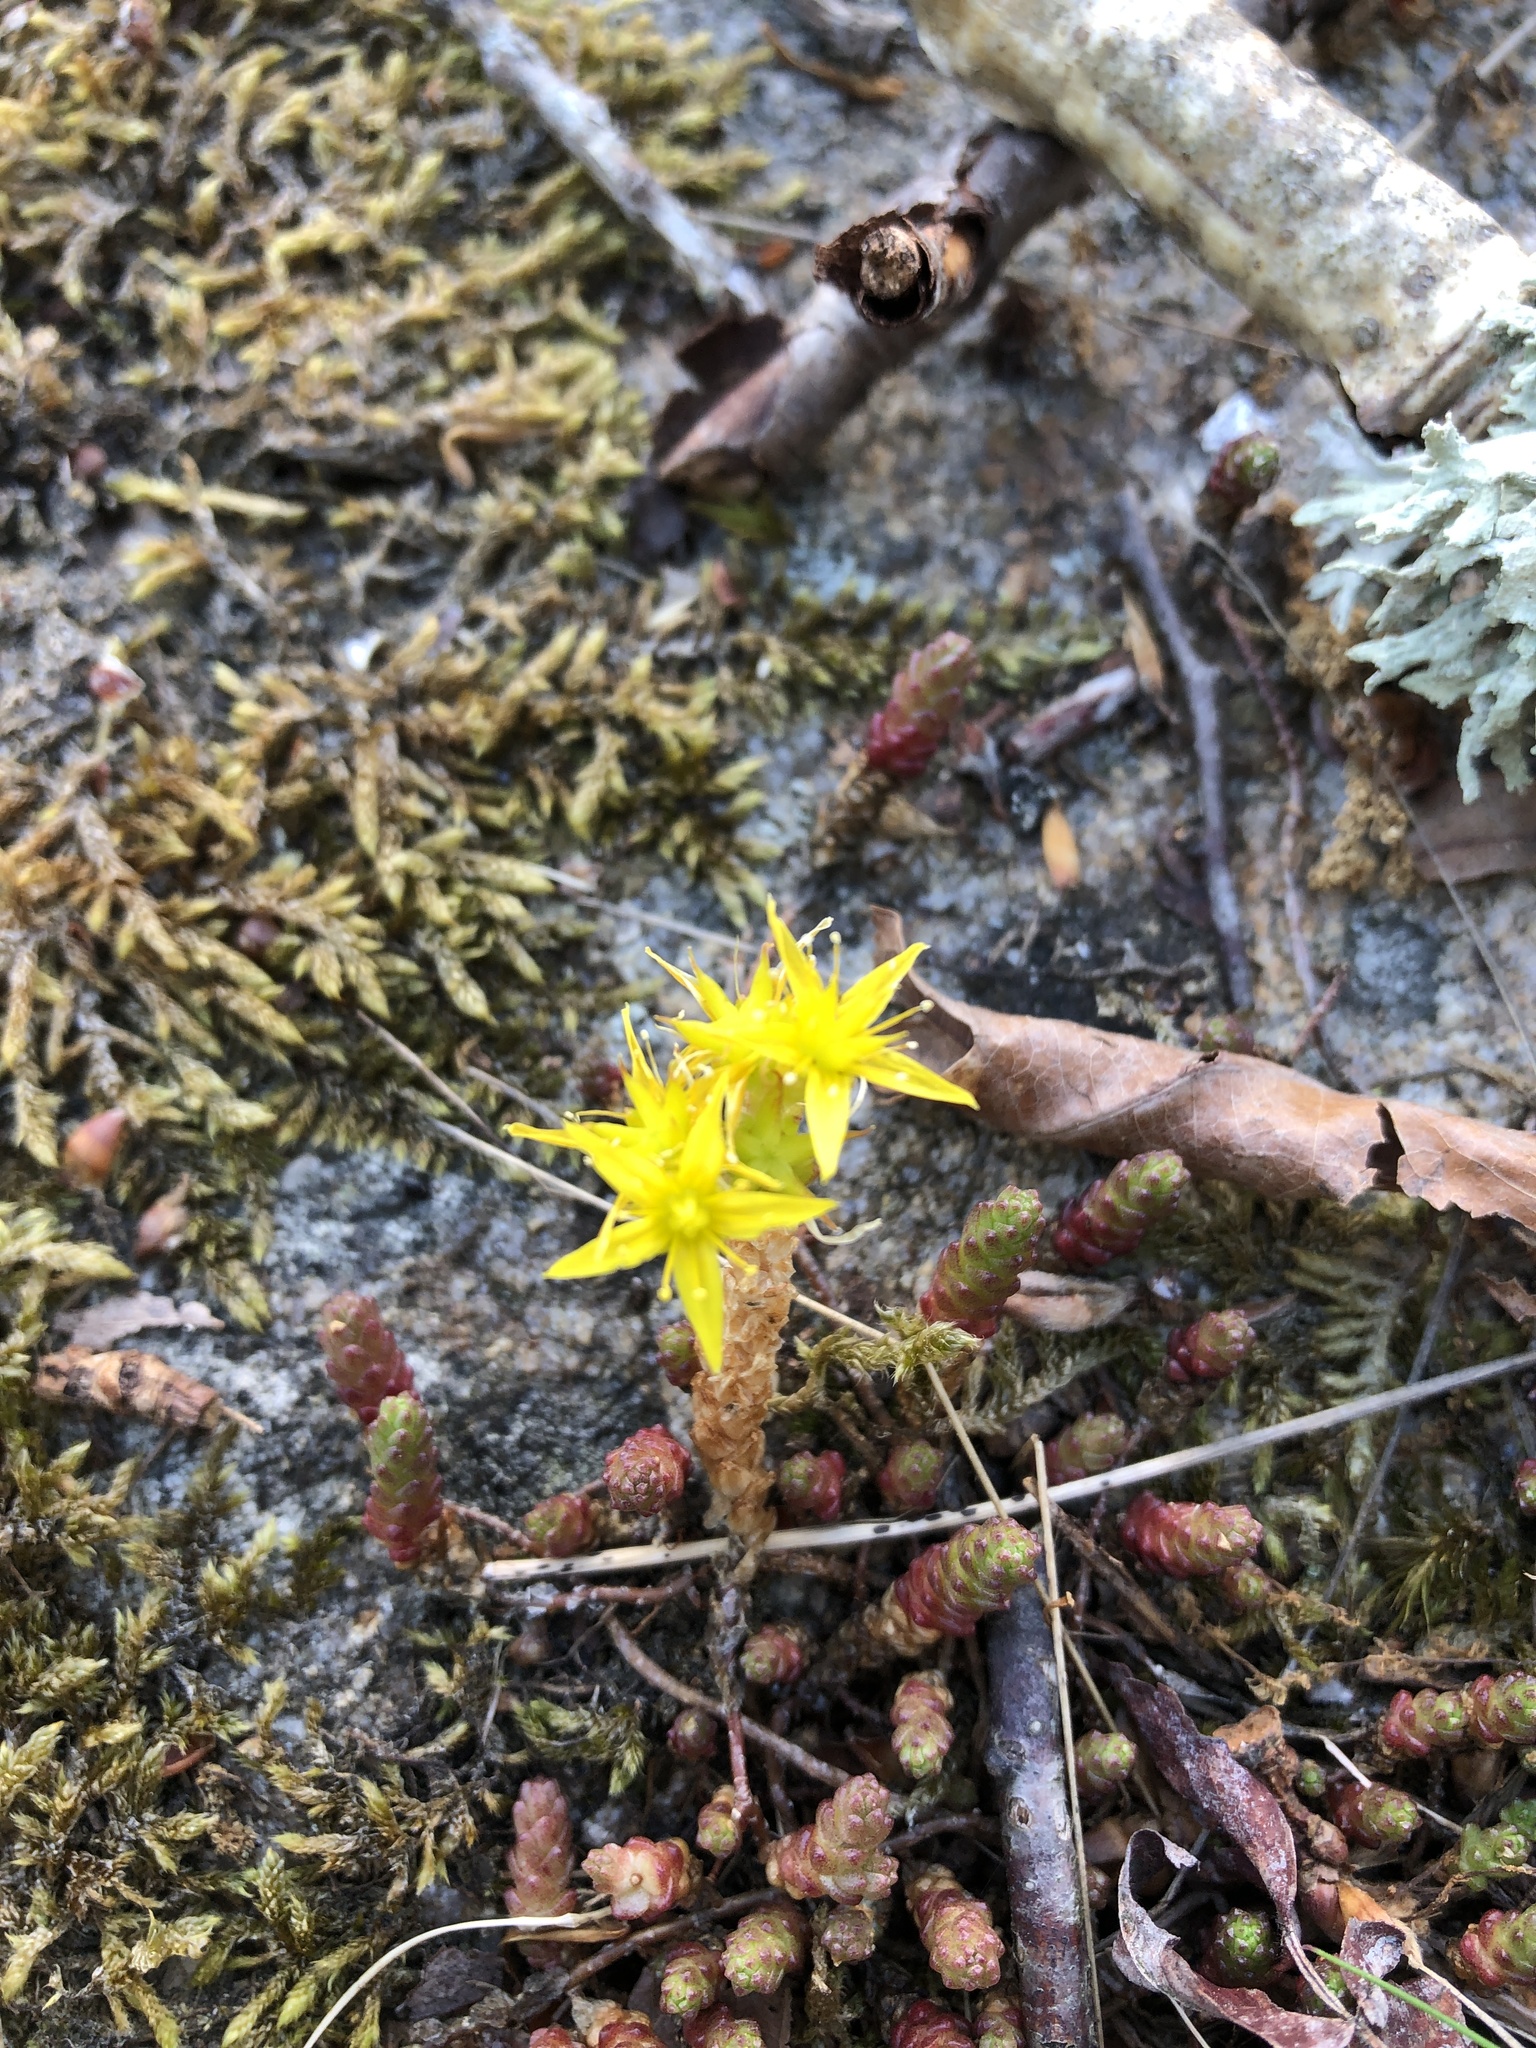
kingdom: Plantae
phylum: Tracheophyta
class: Magnoliopsida
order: Saxifragales
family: Crassulaceae
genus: Sedum
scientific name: Sedum acre
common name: Biting stonecrop
